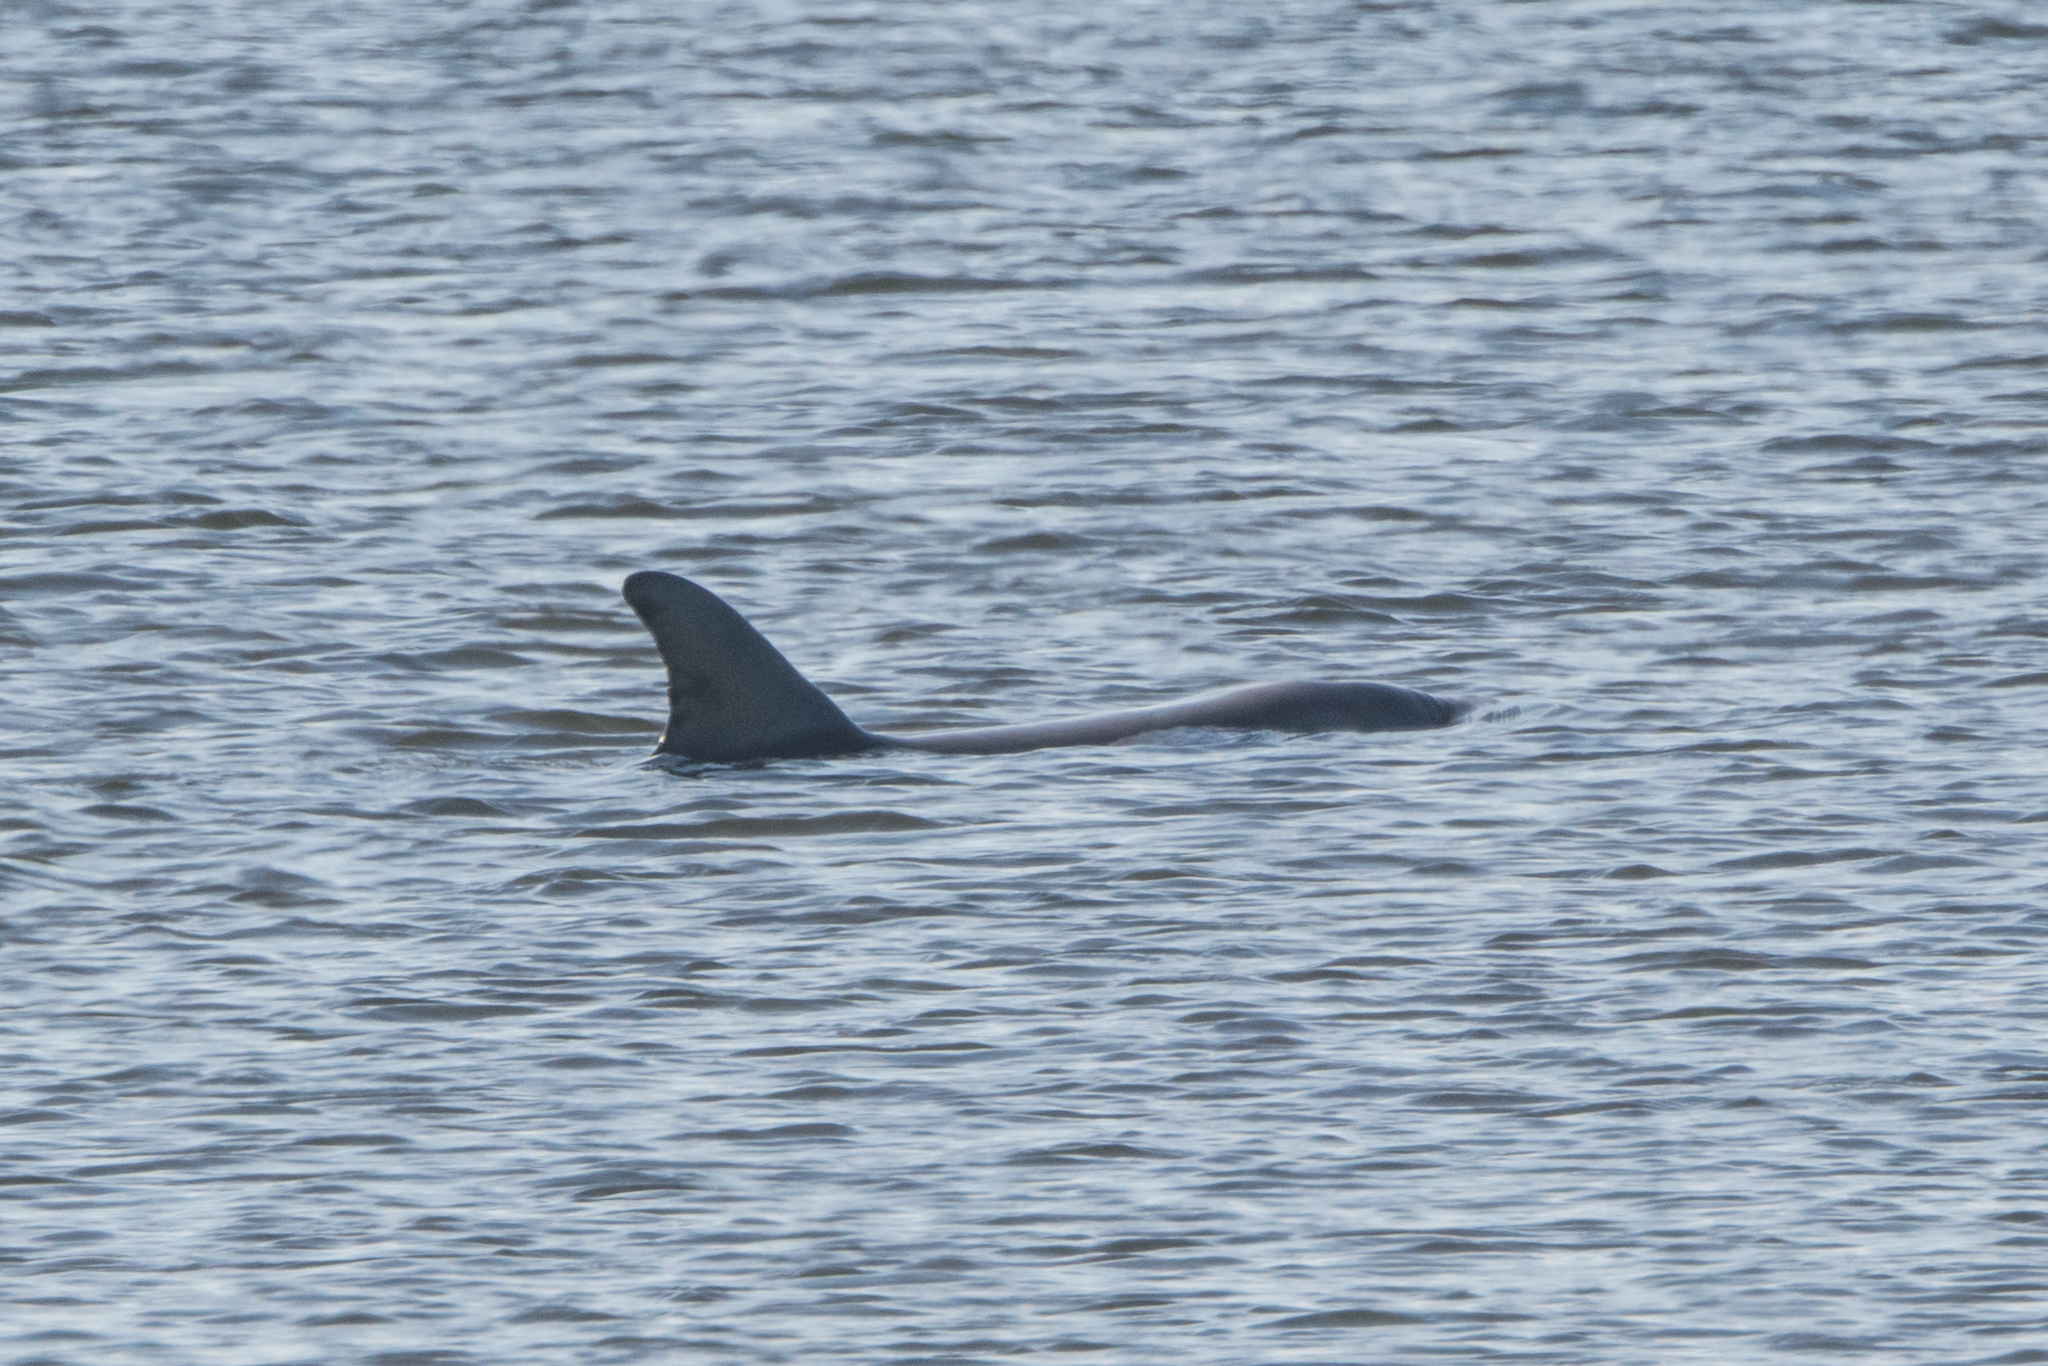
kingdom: Animalia
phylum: Chordata
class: Mammalia
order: Cetacea
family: Delphinidae
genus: Tursiops
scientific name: Tursiops truncatus
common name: Bottlenose dolphin
